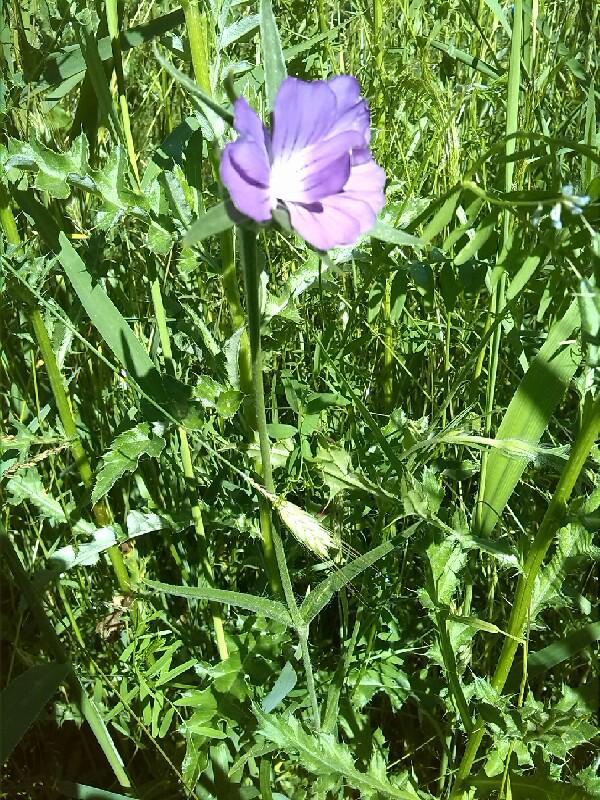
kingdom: Plantae
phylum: Tracheophyta
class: Magnoliopsida
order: Caryophyllales
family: Caryophyllaceae
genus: Agrostemma
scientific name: Agrostemma githago
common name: Common corncockle
